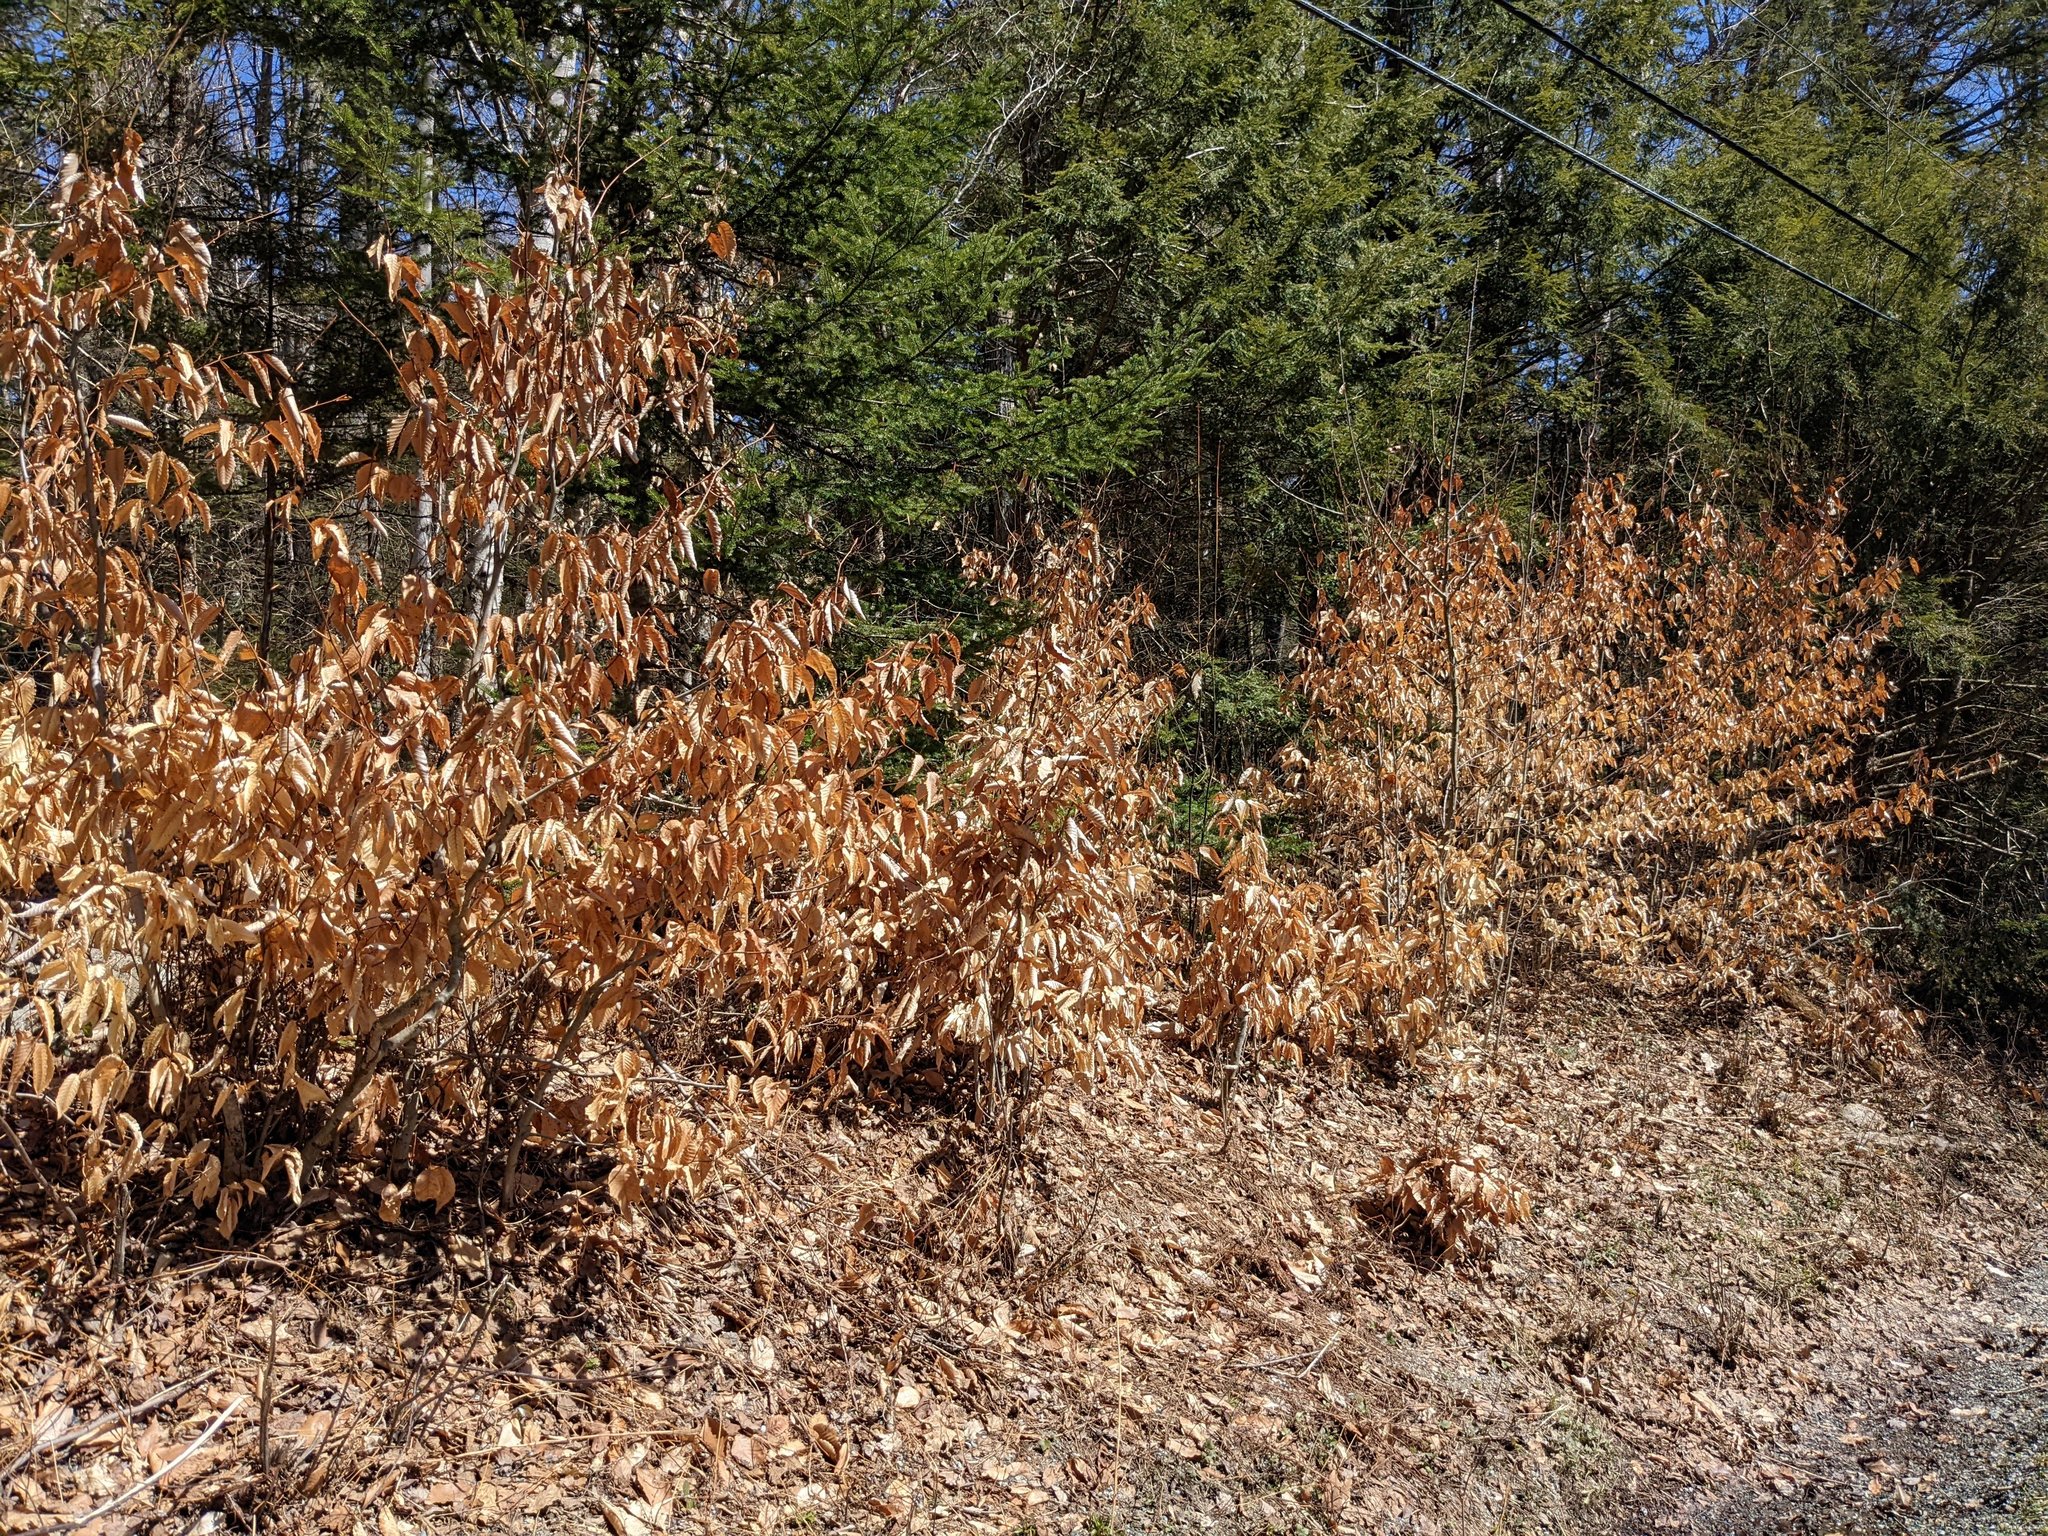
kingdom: Plantae
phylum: Tracheophyta
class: Magnoliopsida
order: Fagales
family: Fagaceae
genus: Fagus
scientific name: Fagus grandifolia
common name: American beech
